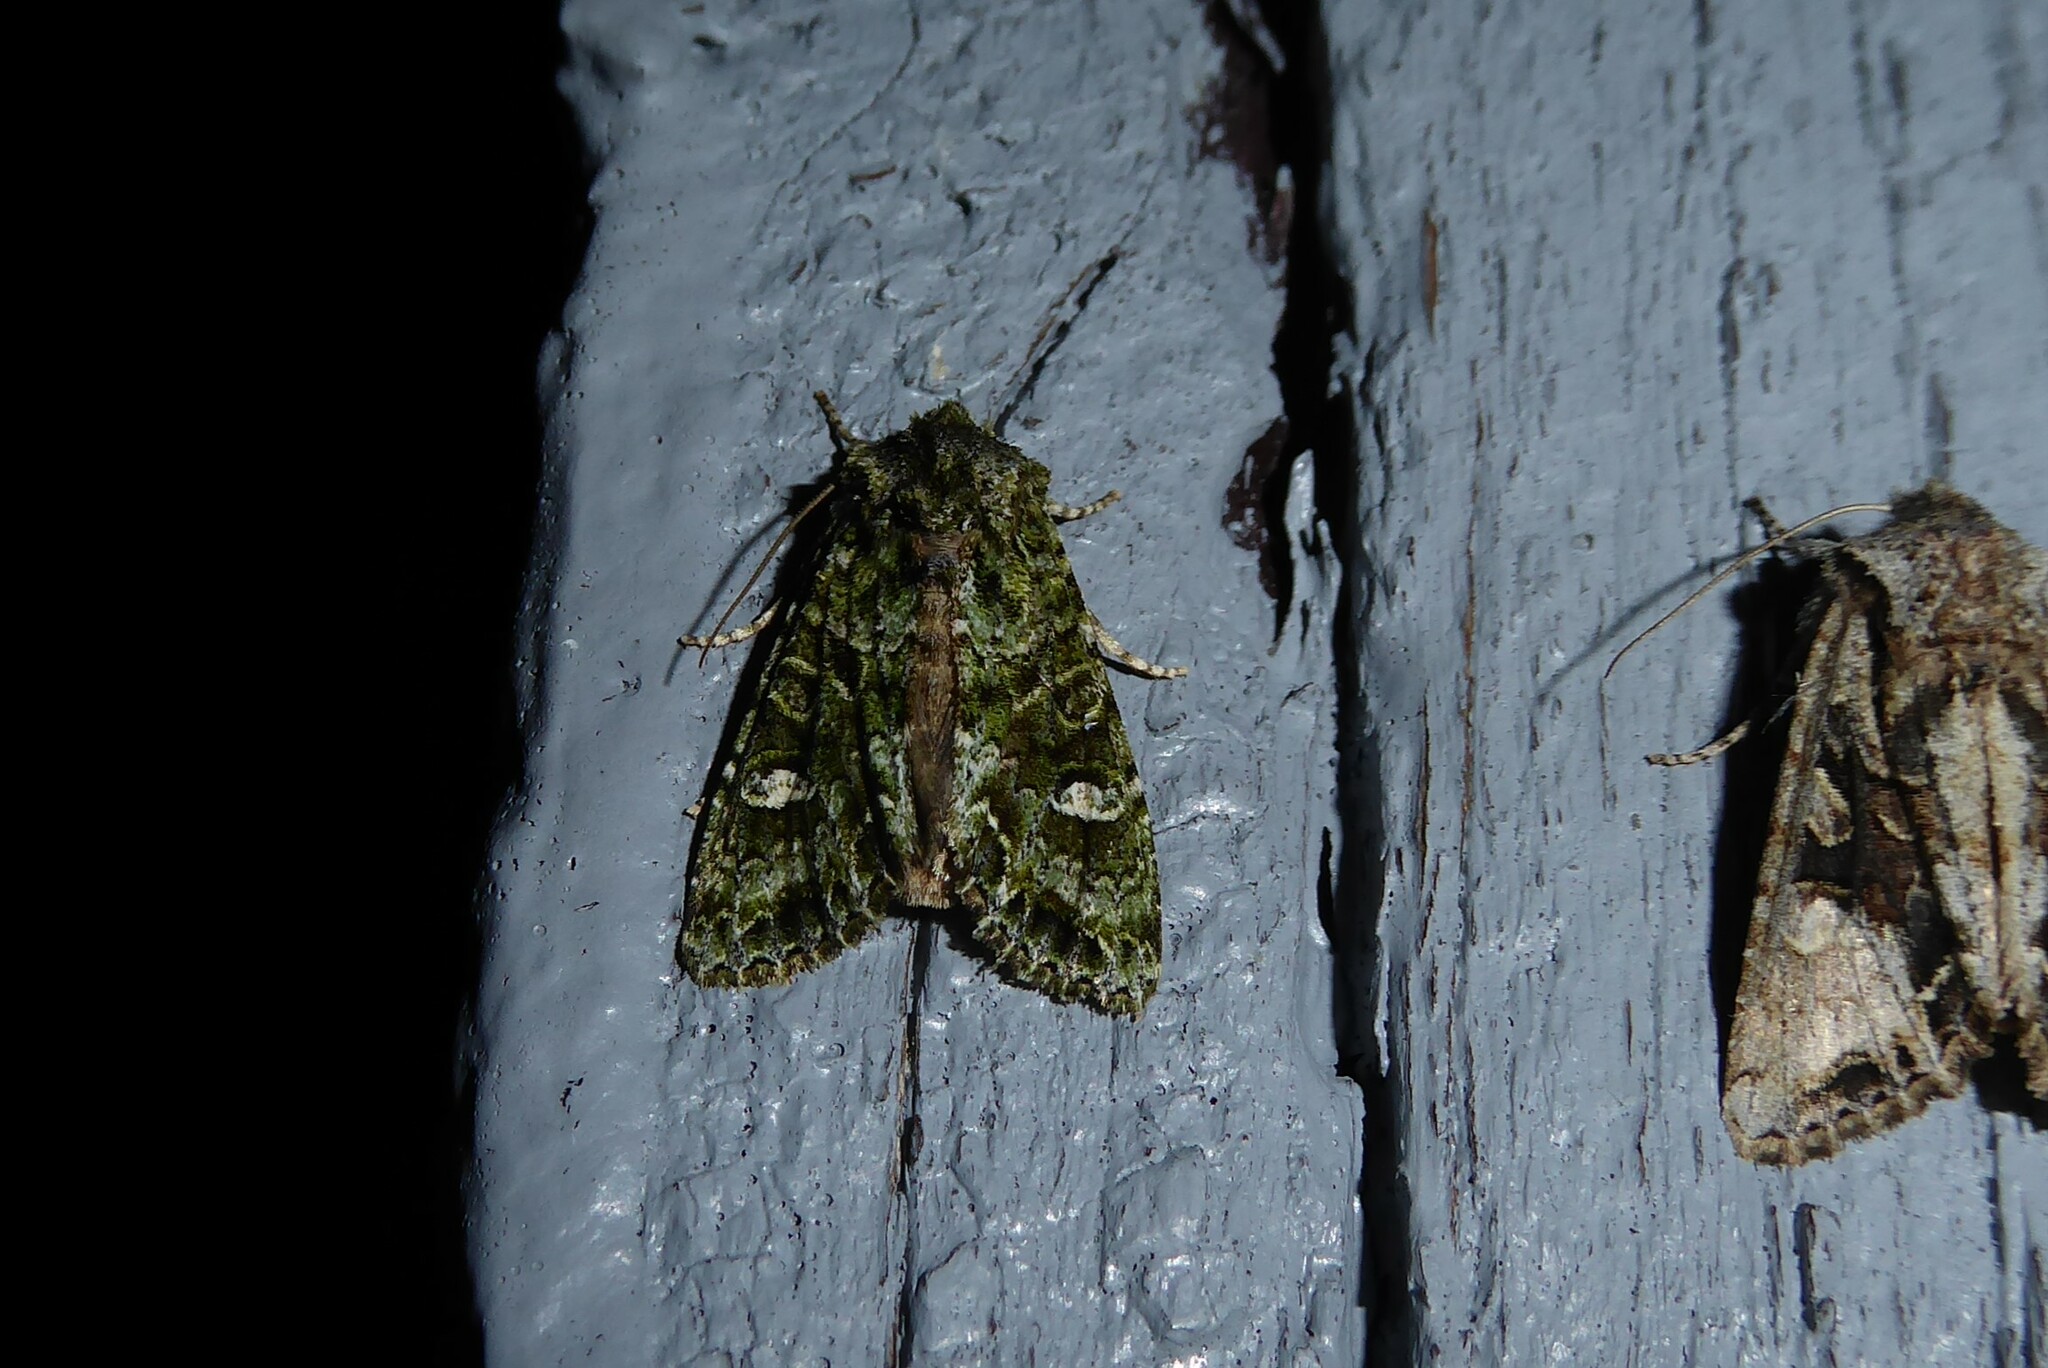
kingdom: Animalia
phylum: Arthropoda
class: Insecta
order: Lepidoptera
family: Noctuidae
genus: Ichneutica
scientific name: Ichneutica
